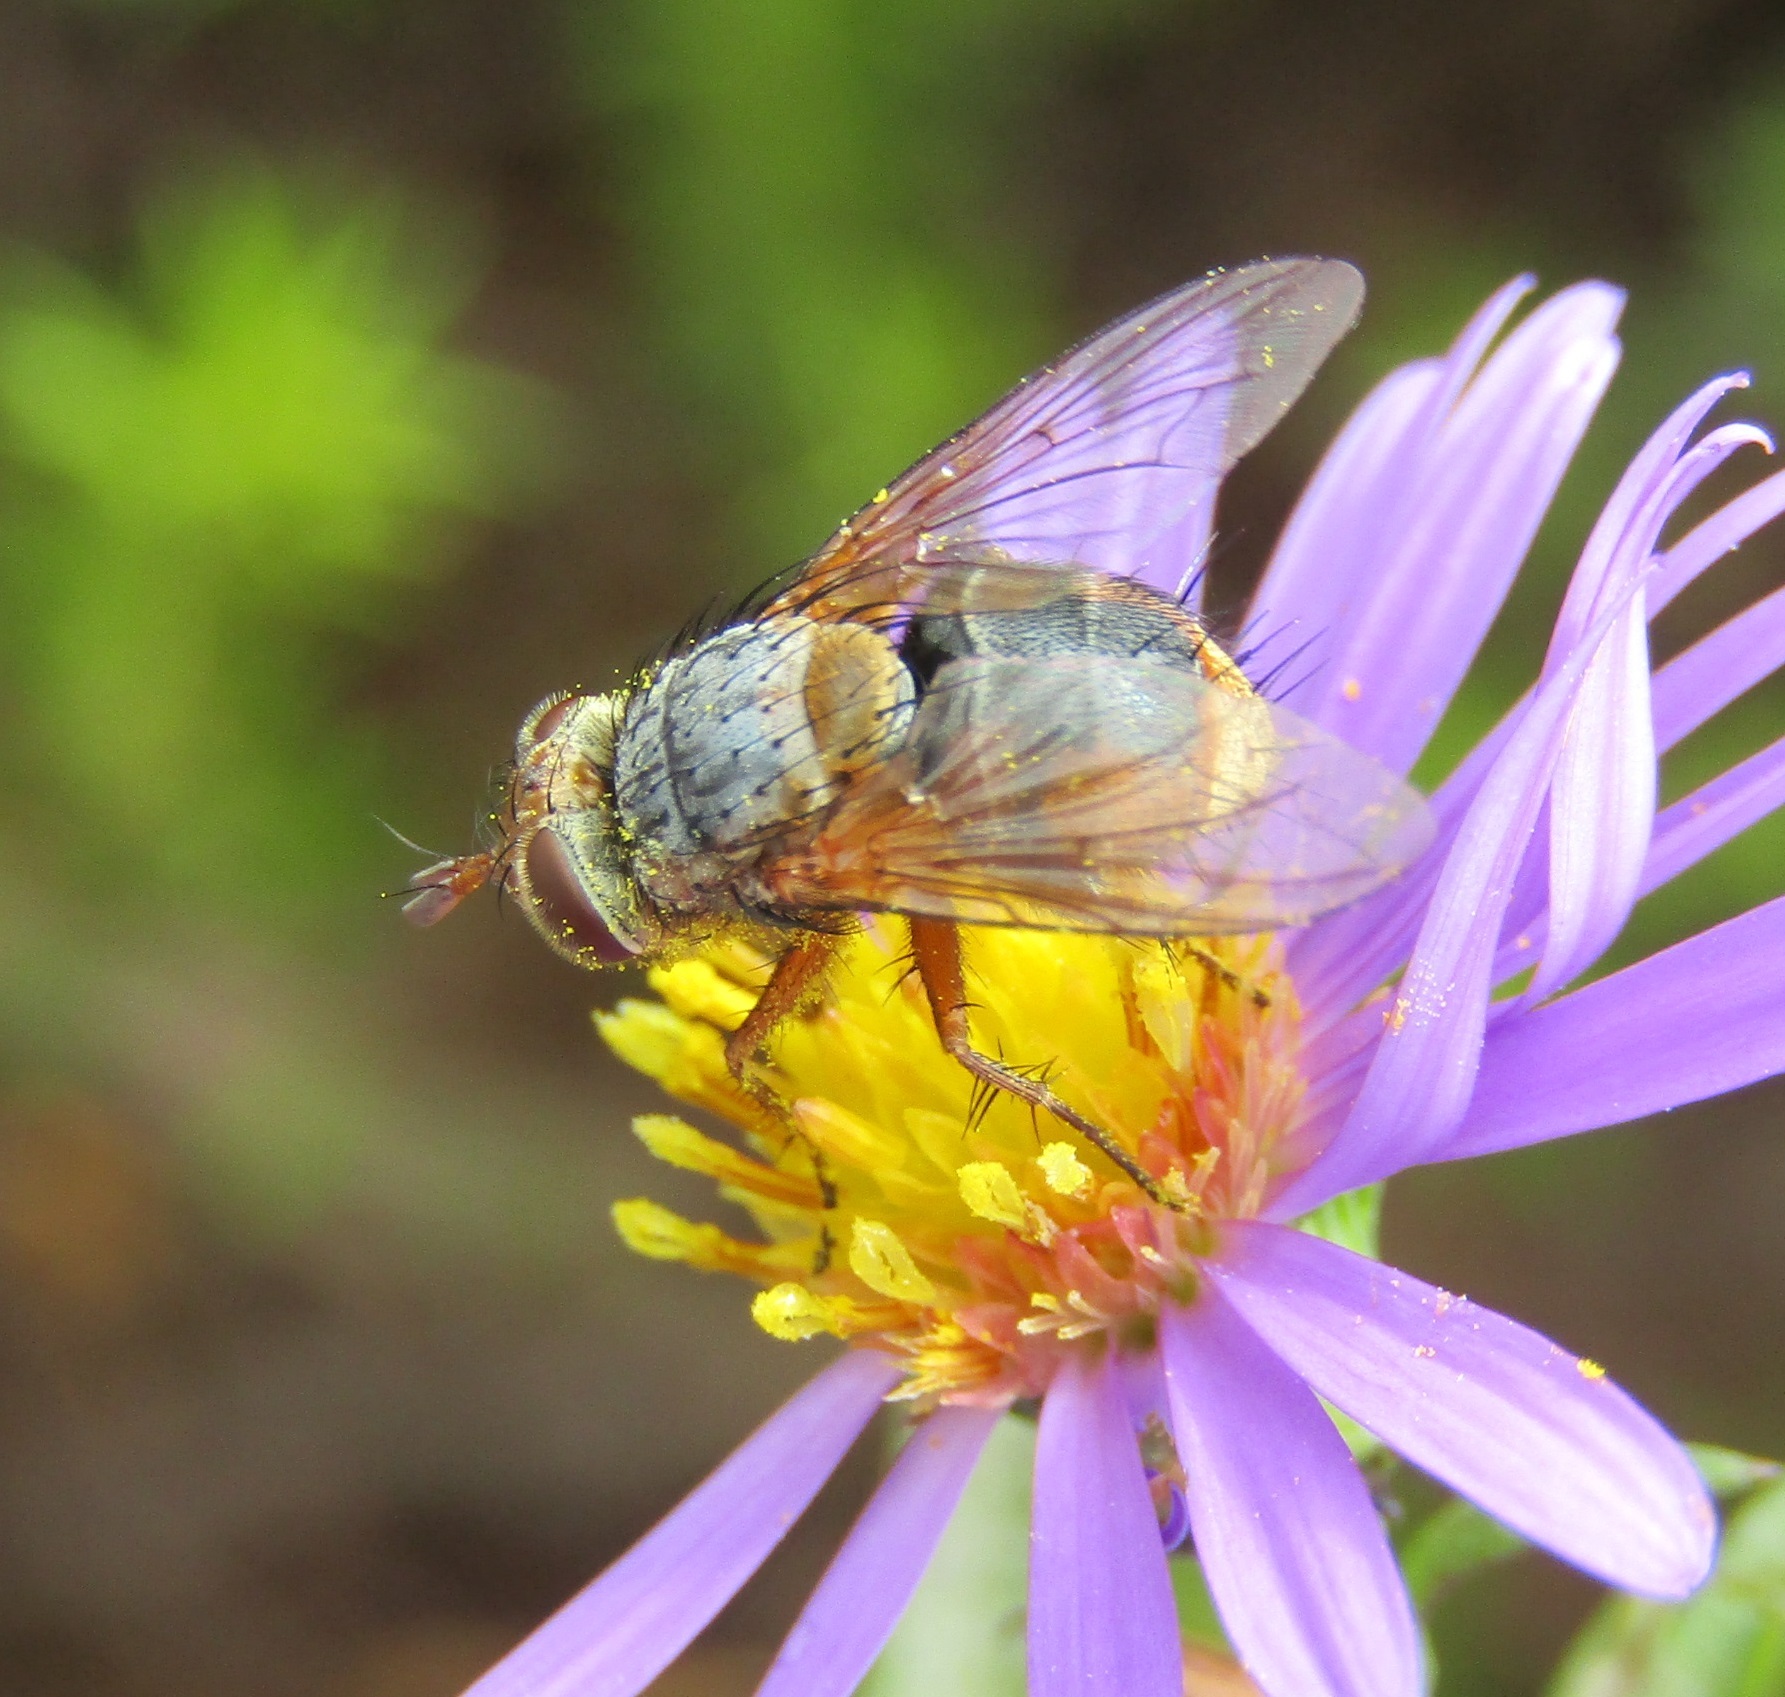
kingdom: Animalia
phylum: Arthropoda
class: Insecta
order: Diptera
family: Tachinidae
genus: Chaetophthalmus
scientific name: Chaetophthalmus bicolor
